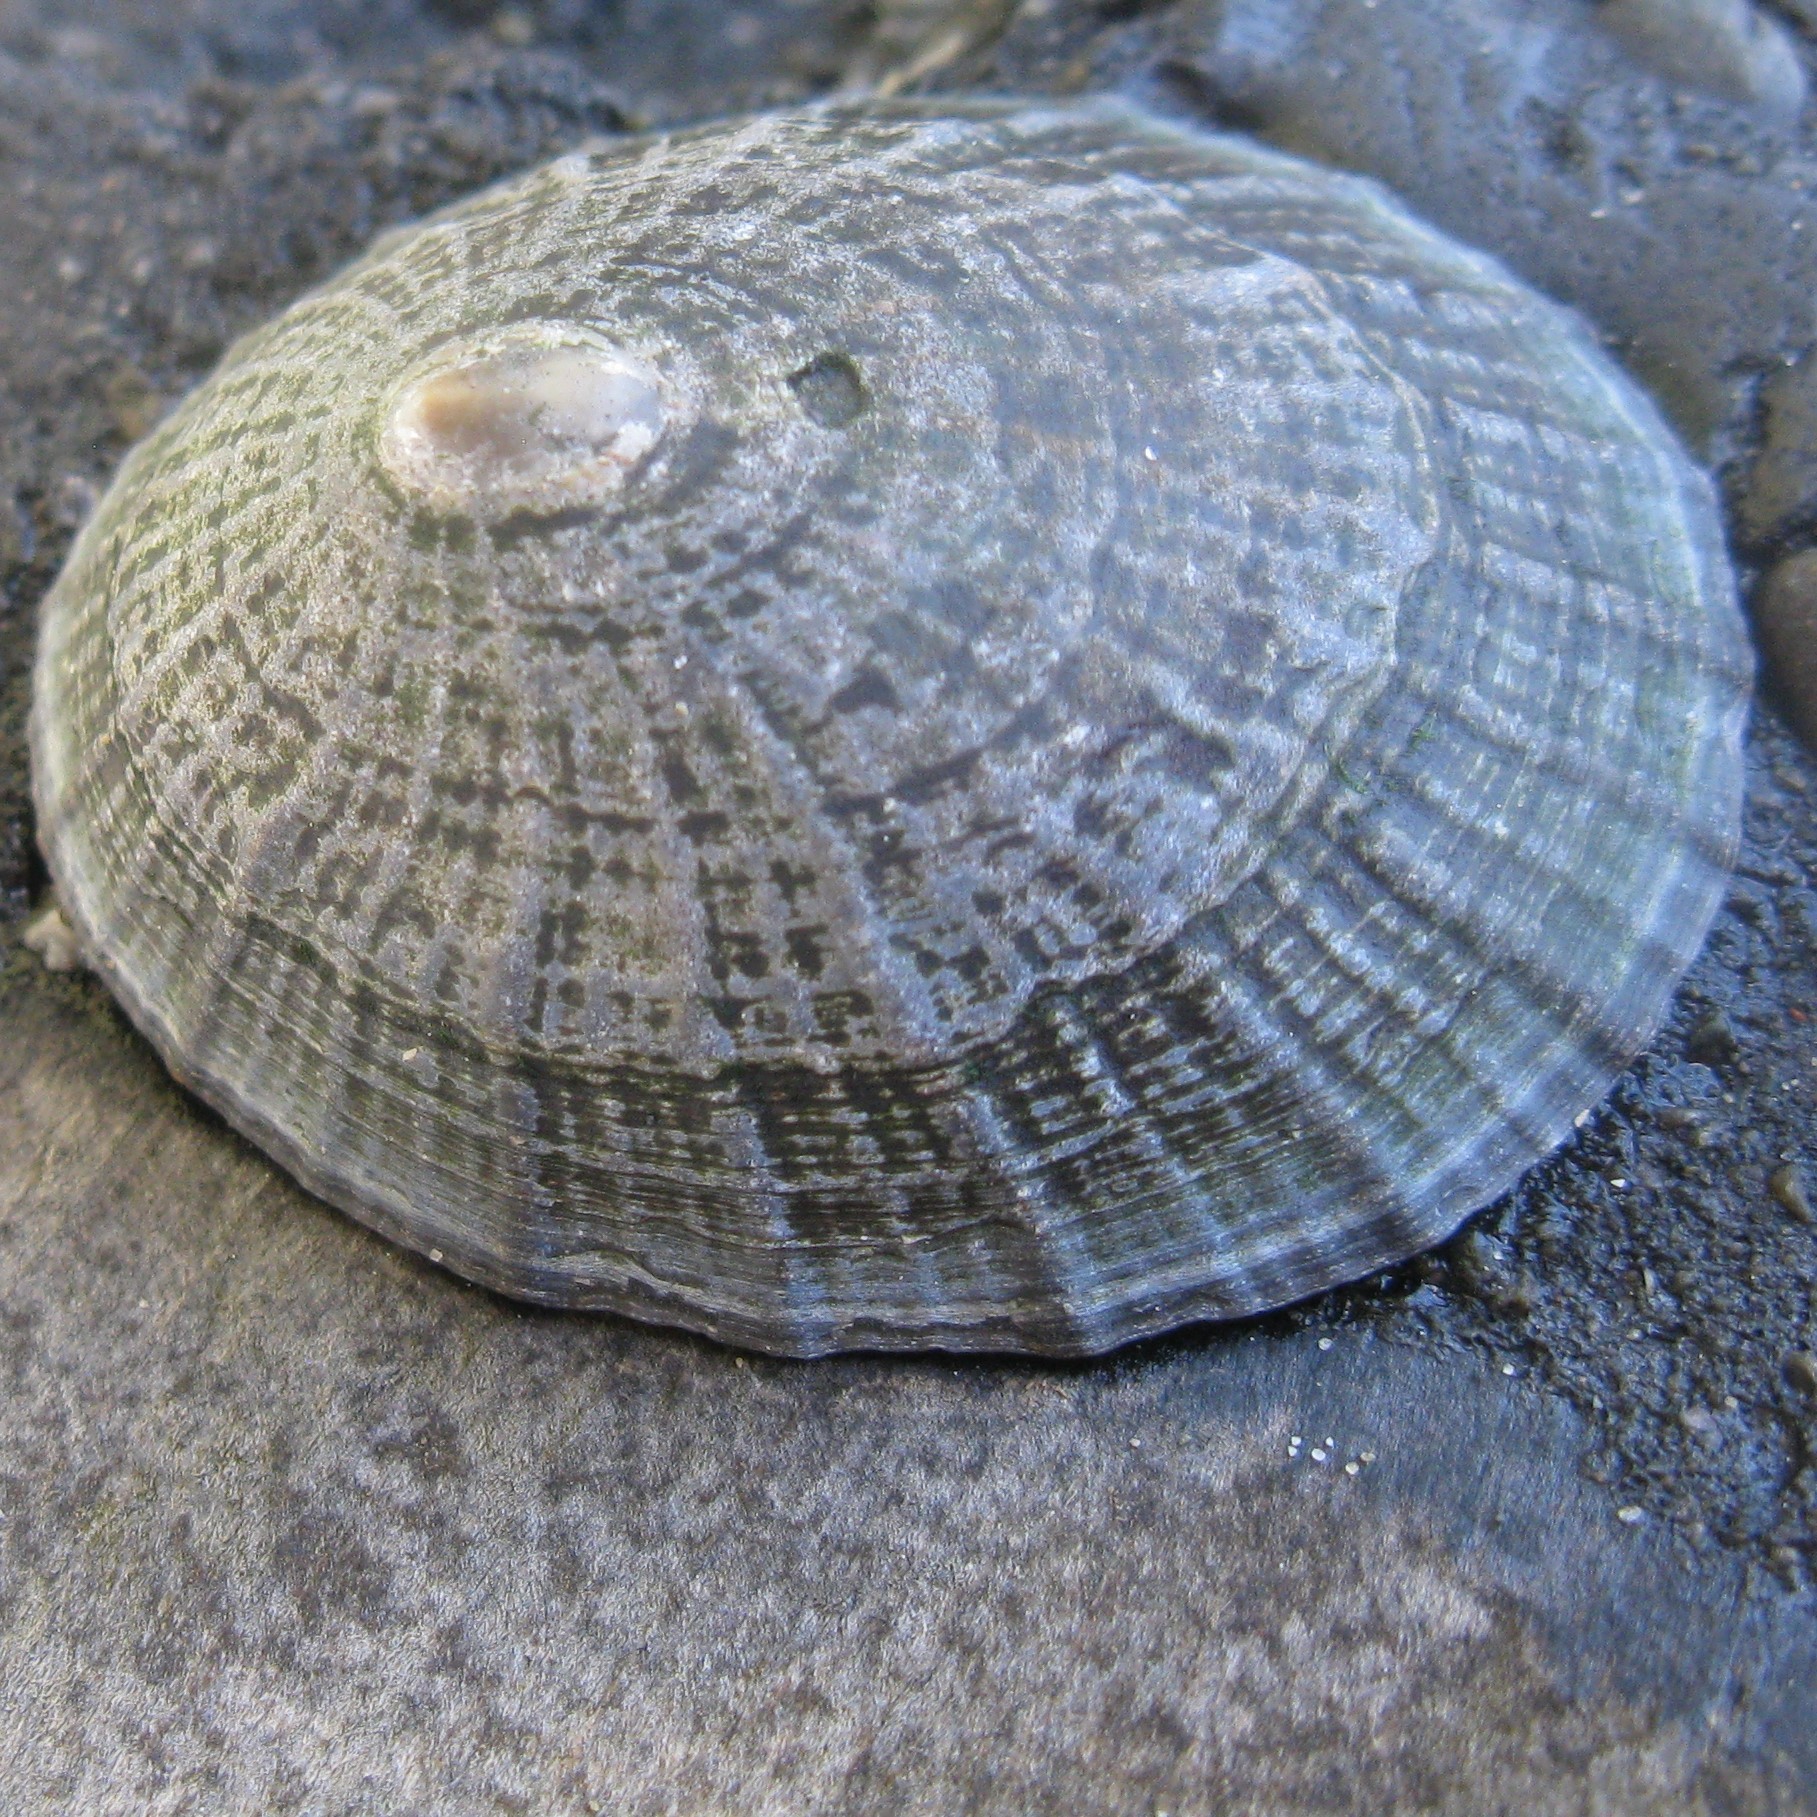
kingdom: Animalia
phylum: Mollusca
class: Gastropoda
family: Nacellidae
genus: Cellana
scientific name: Cellana radians
